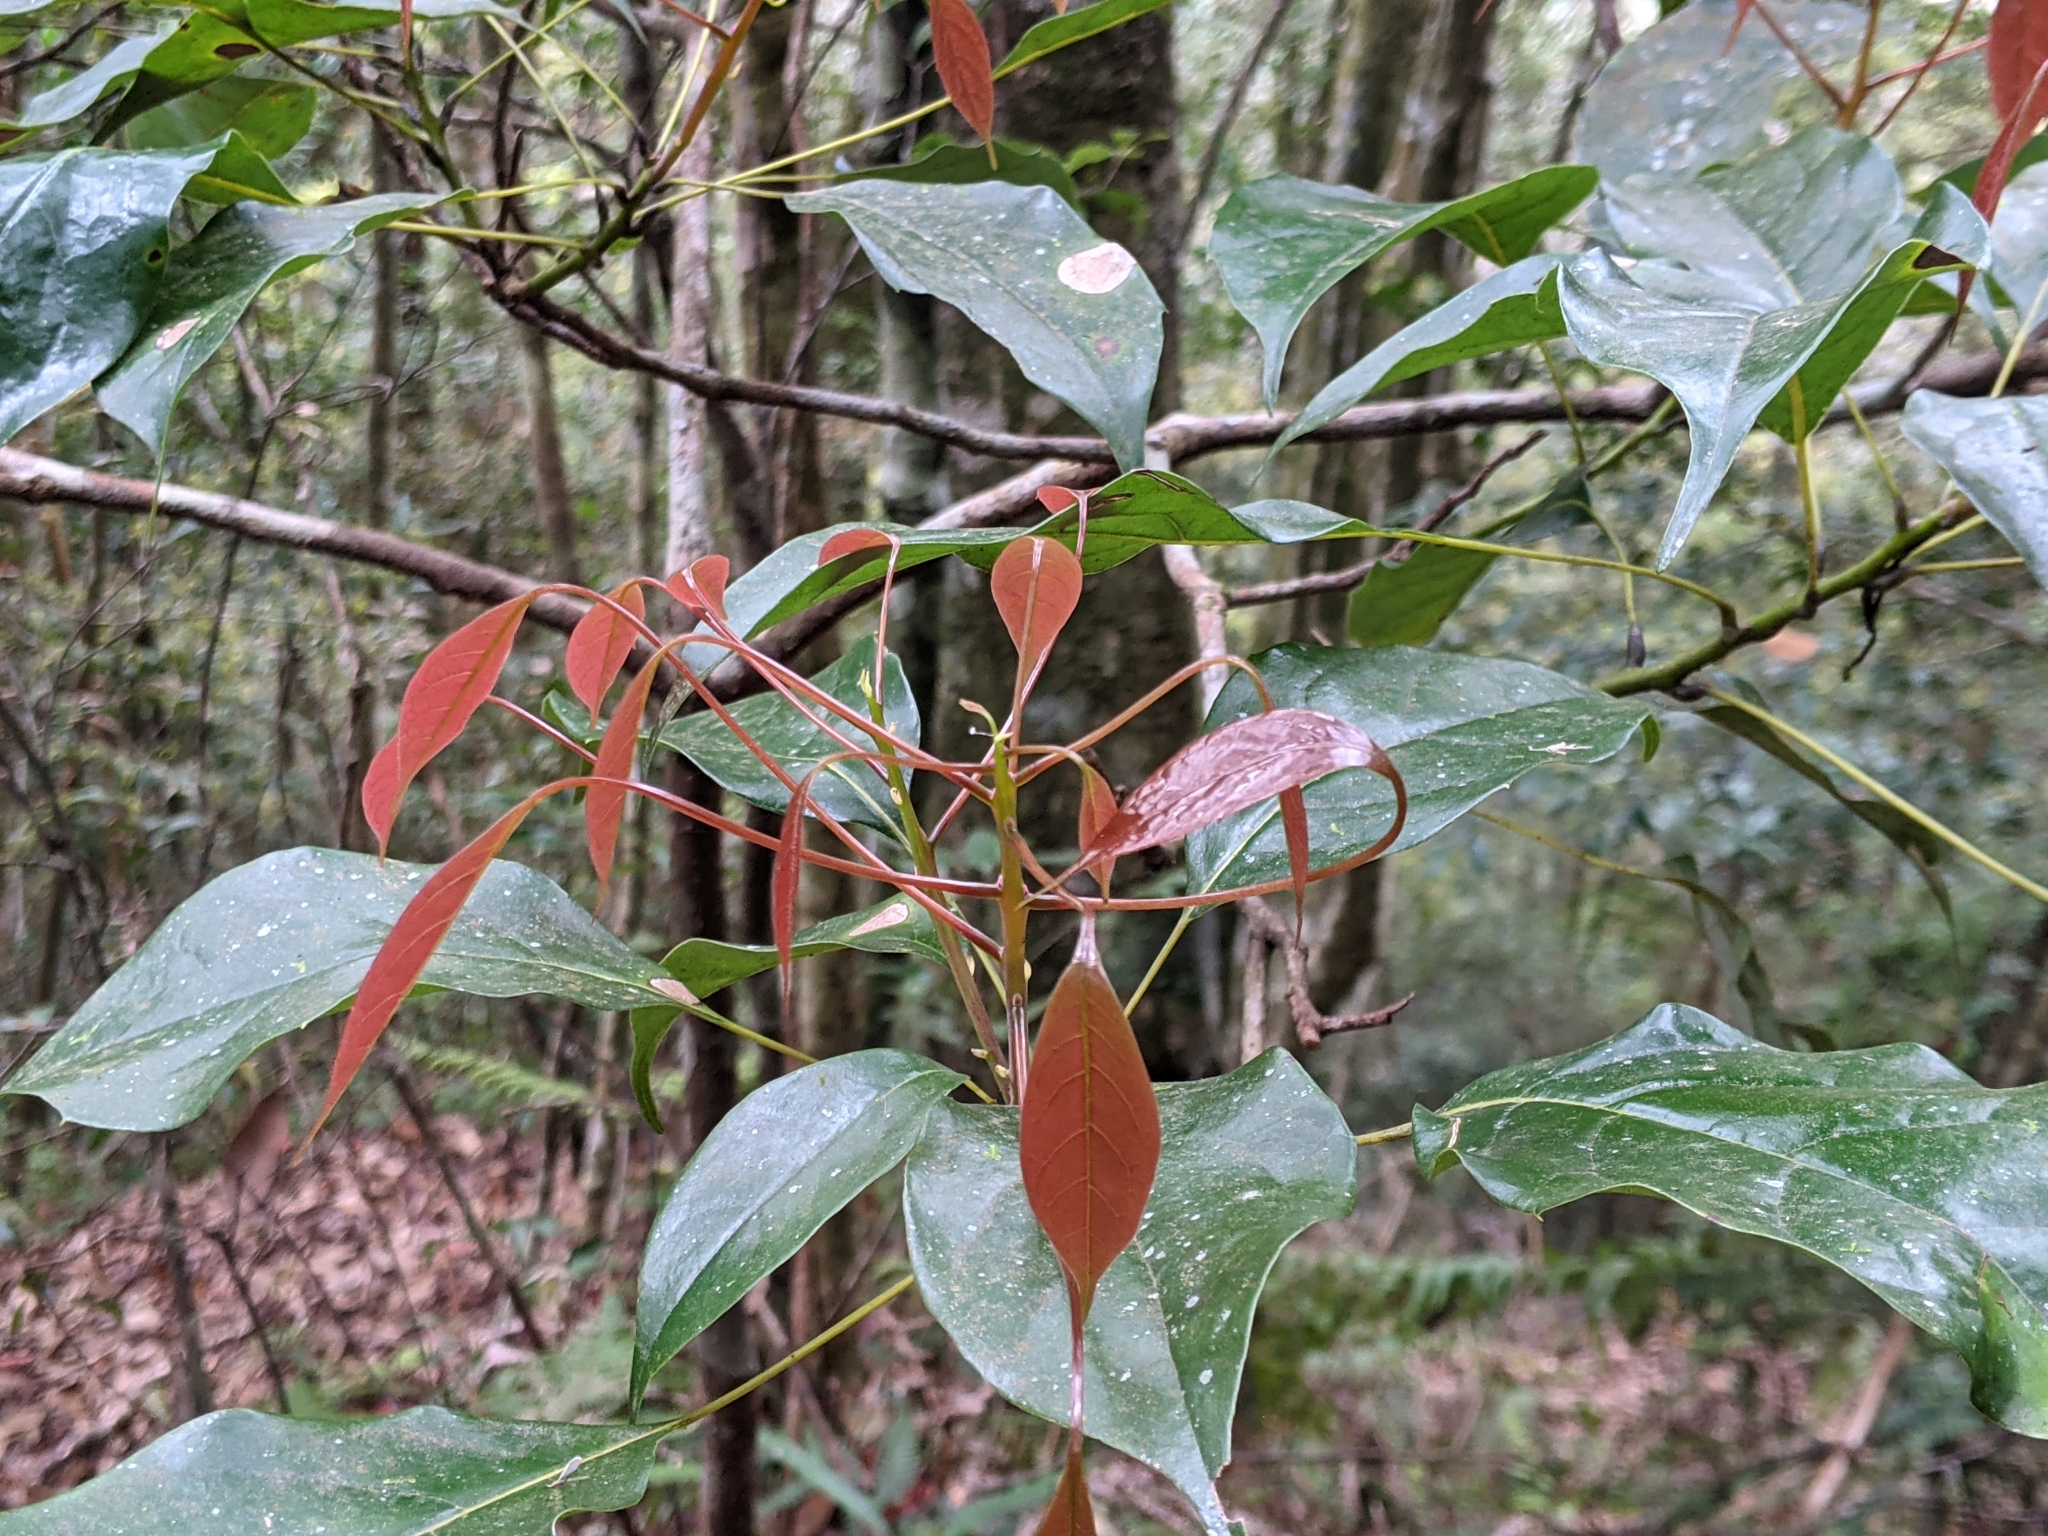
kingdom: Plantae
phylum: Tracheophyta
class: Magnoliopsida
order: Proteales
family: Sabiaceae
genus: Meliosma
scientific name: Meliosma squamulata
